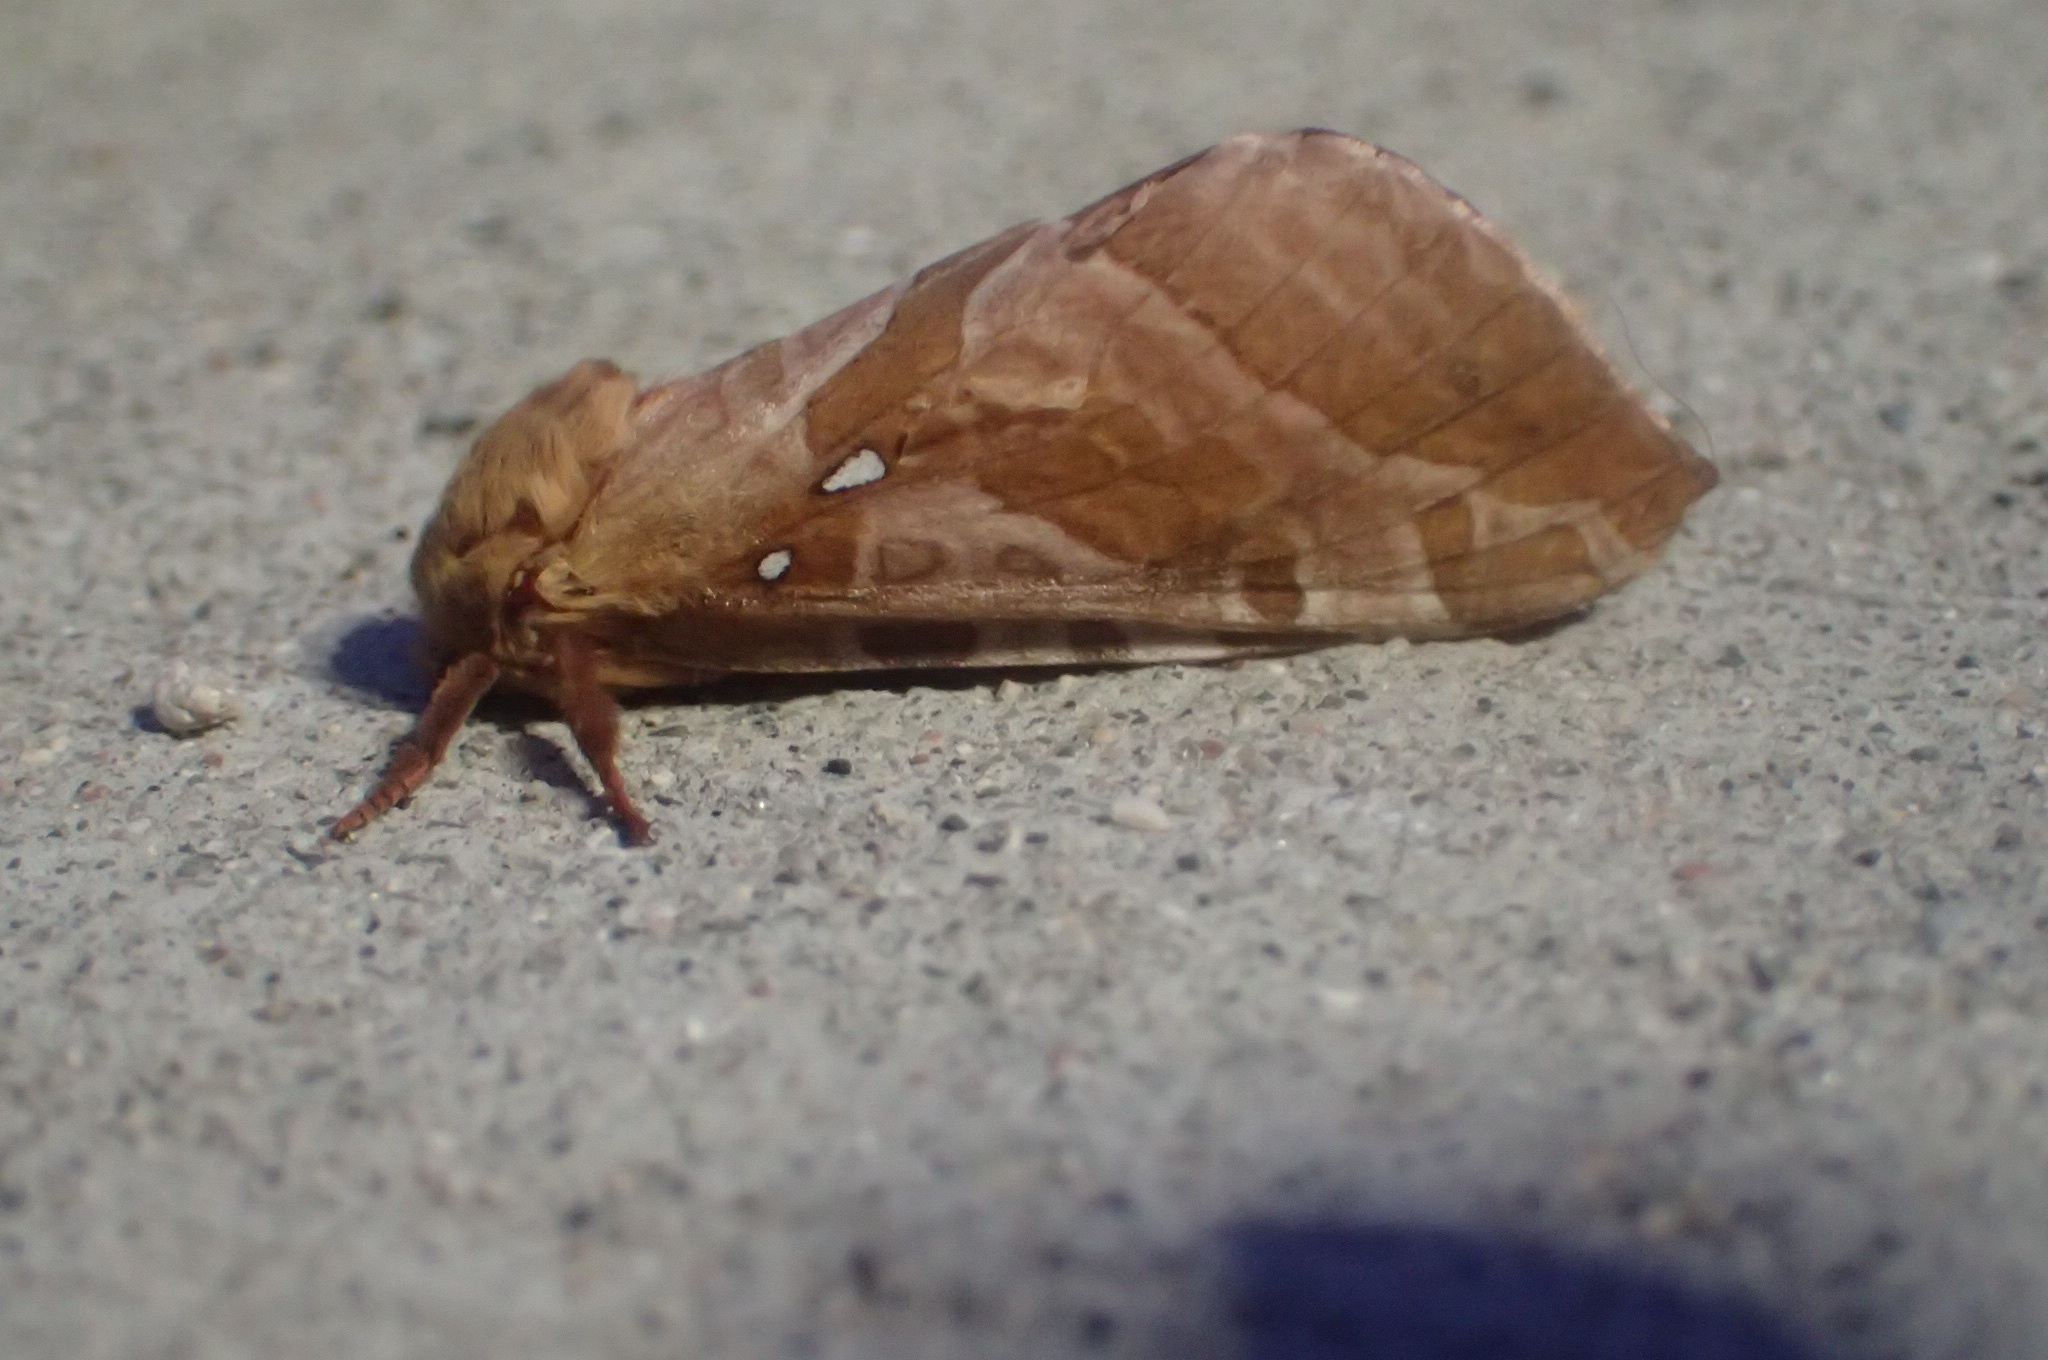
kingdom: Animalia
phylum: Arthropoda
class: Insecta
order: Lepidoptera
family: Hepialidae
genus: Sthenopis
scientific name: Sthenopis purpurascens
